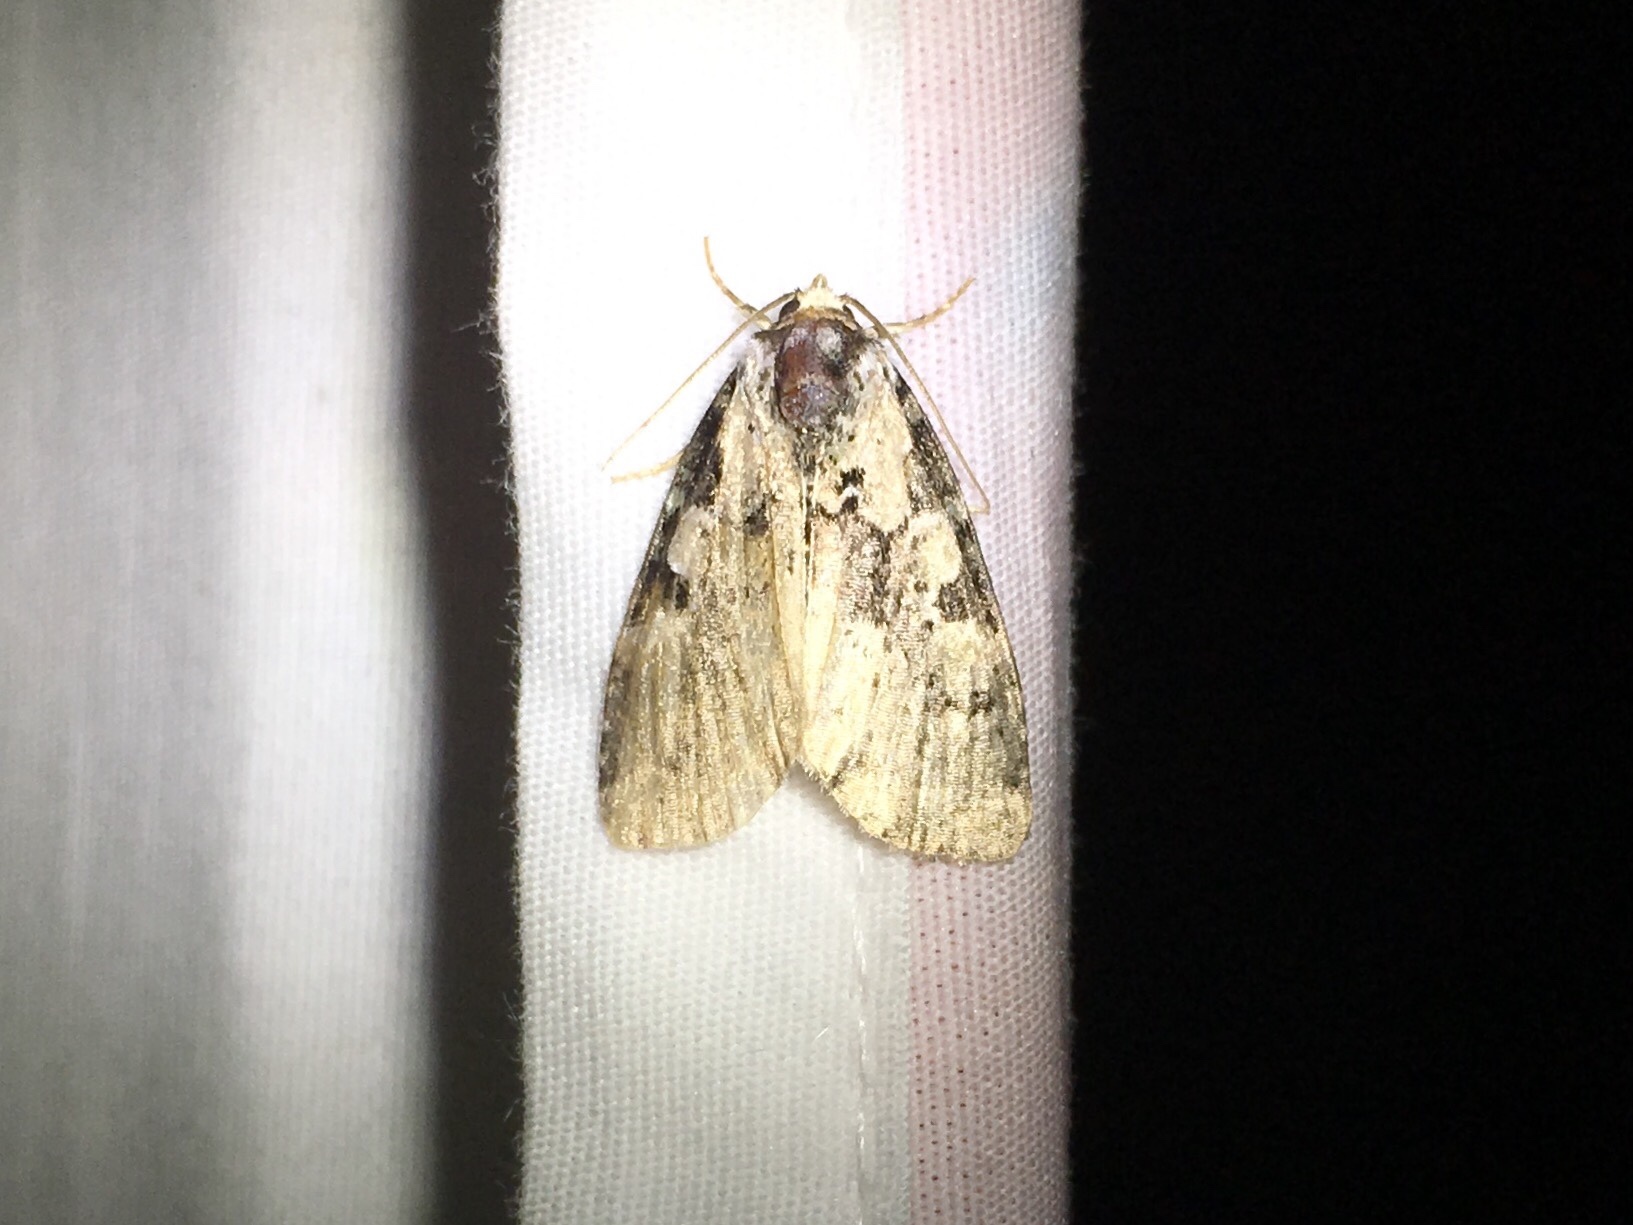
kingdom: Animalia
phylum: Arthropoda
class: Insecta
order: Lepidoptera
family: Noctuidae
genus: Leuconycta
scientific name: Leuconycta lepidula
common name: Marbled-green leuconycta moth
